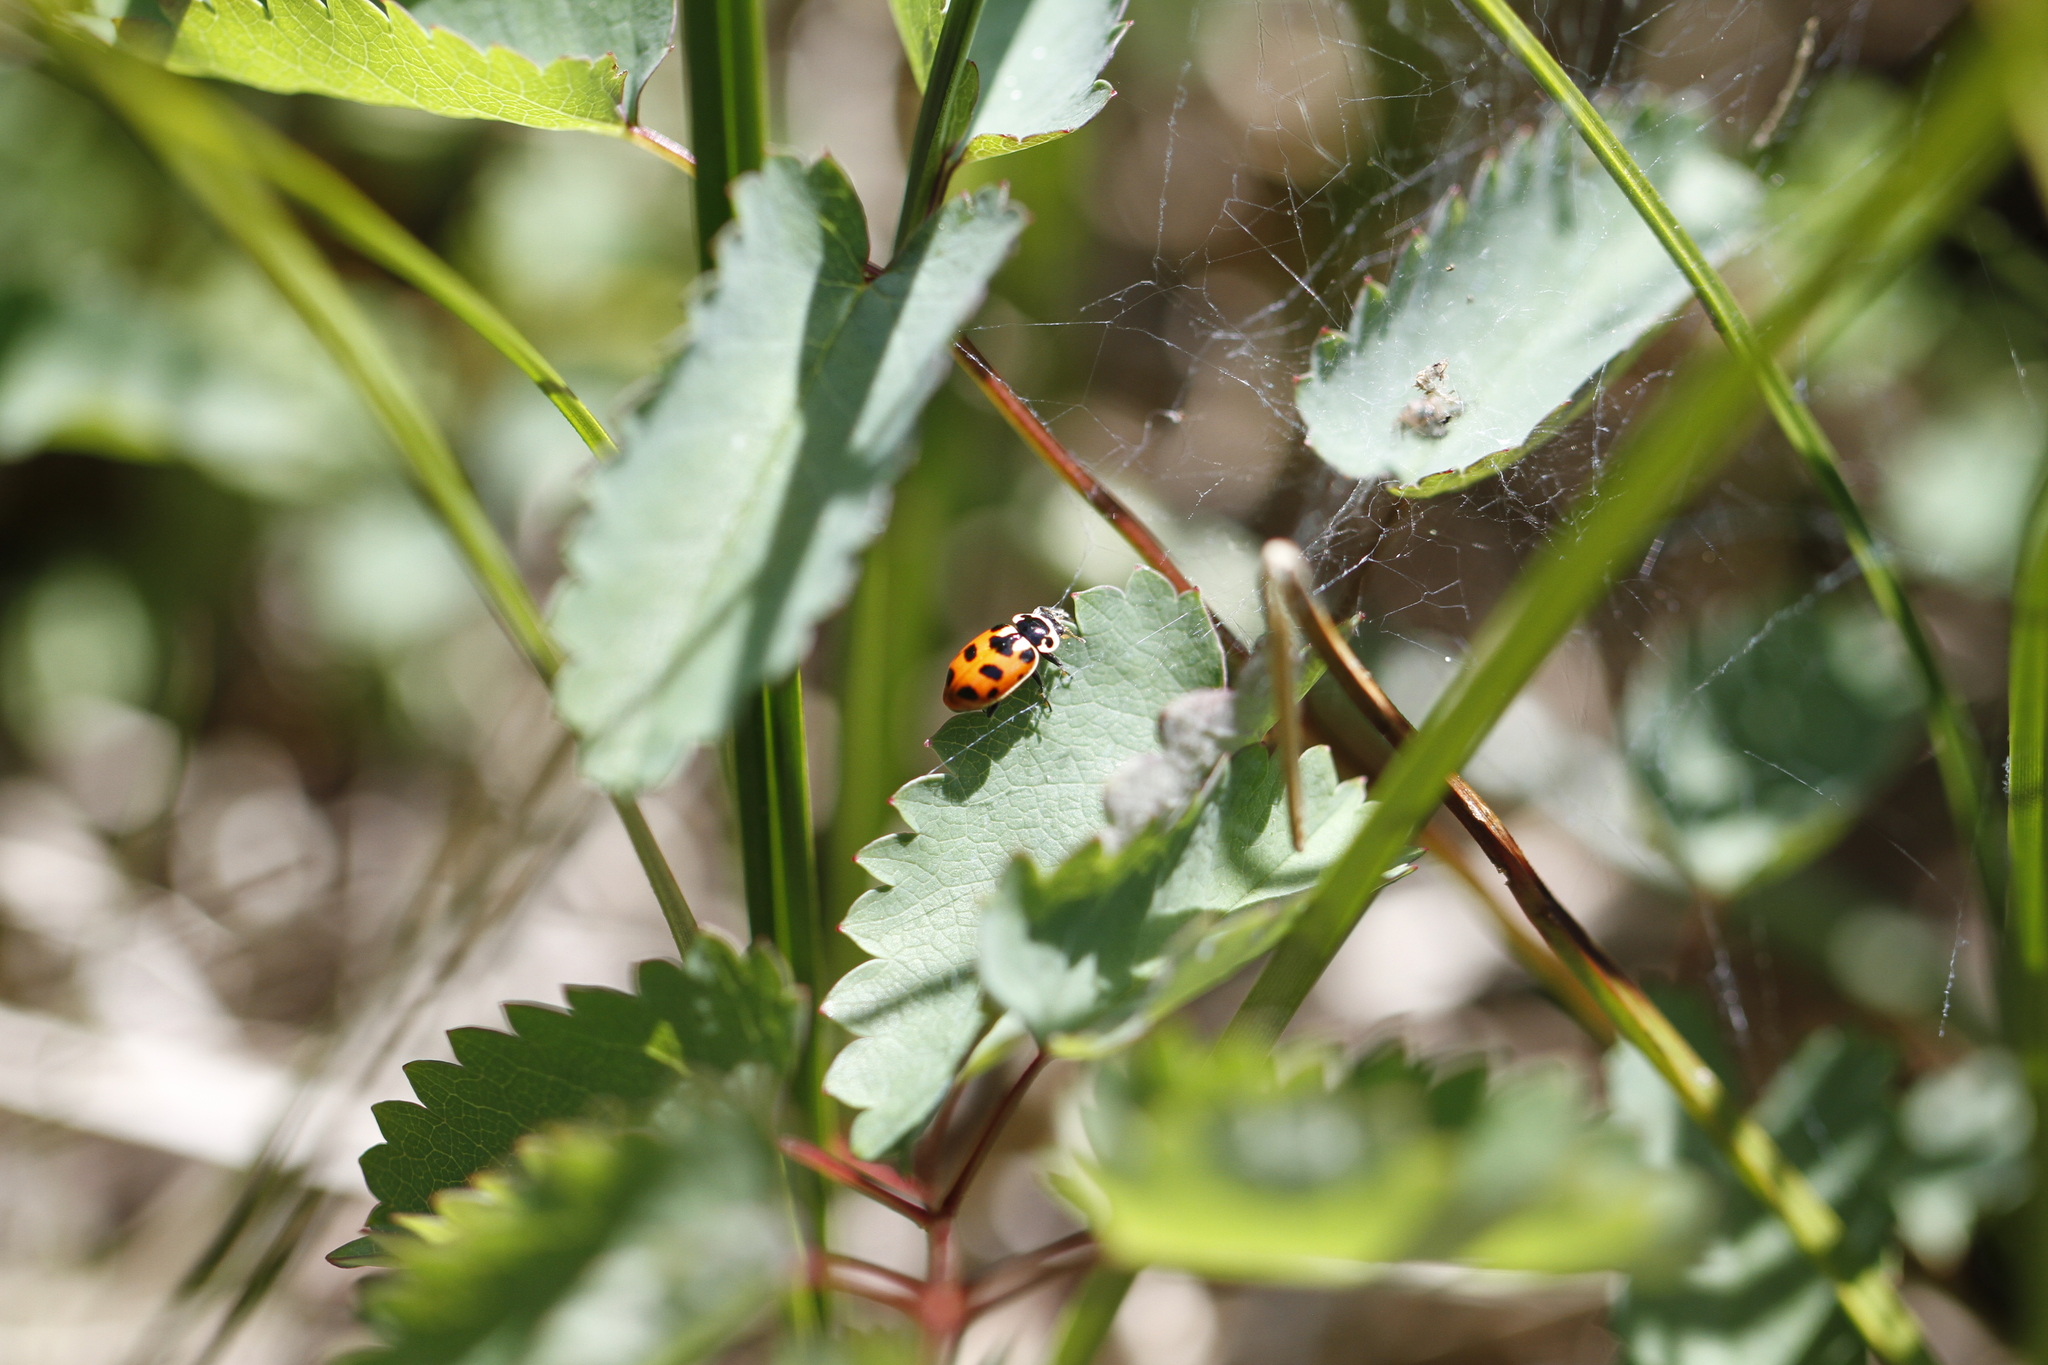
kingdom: Animalia
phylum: Arthropoda
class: Insecta
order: Coleoptera
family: Coccinellidae
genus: Hippodamia
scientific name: Hippodamia washingtoni
